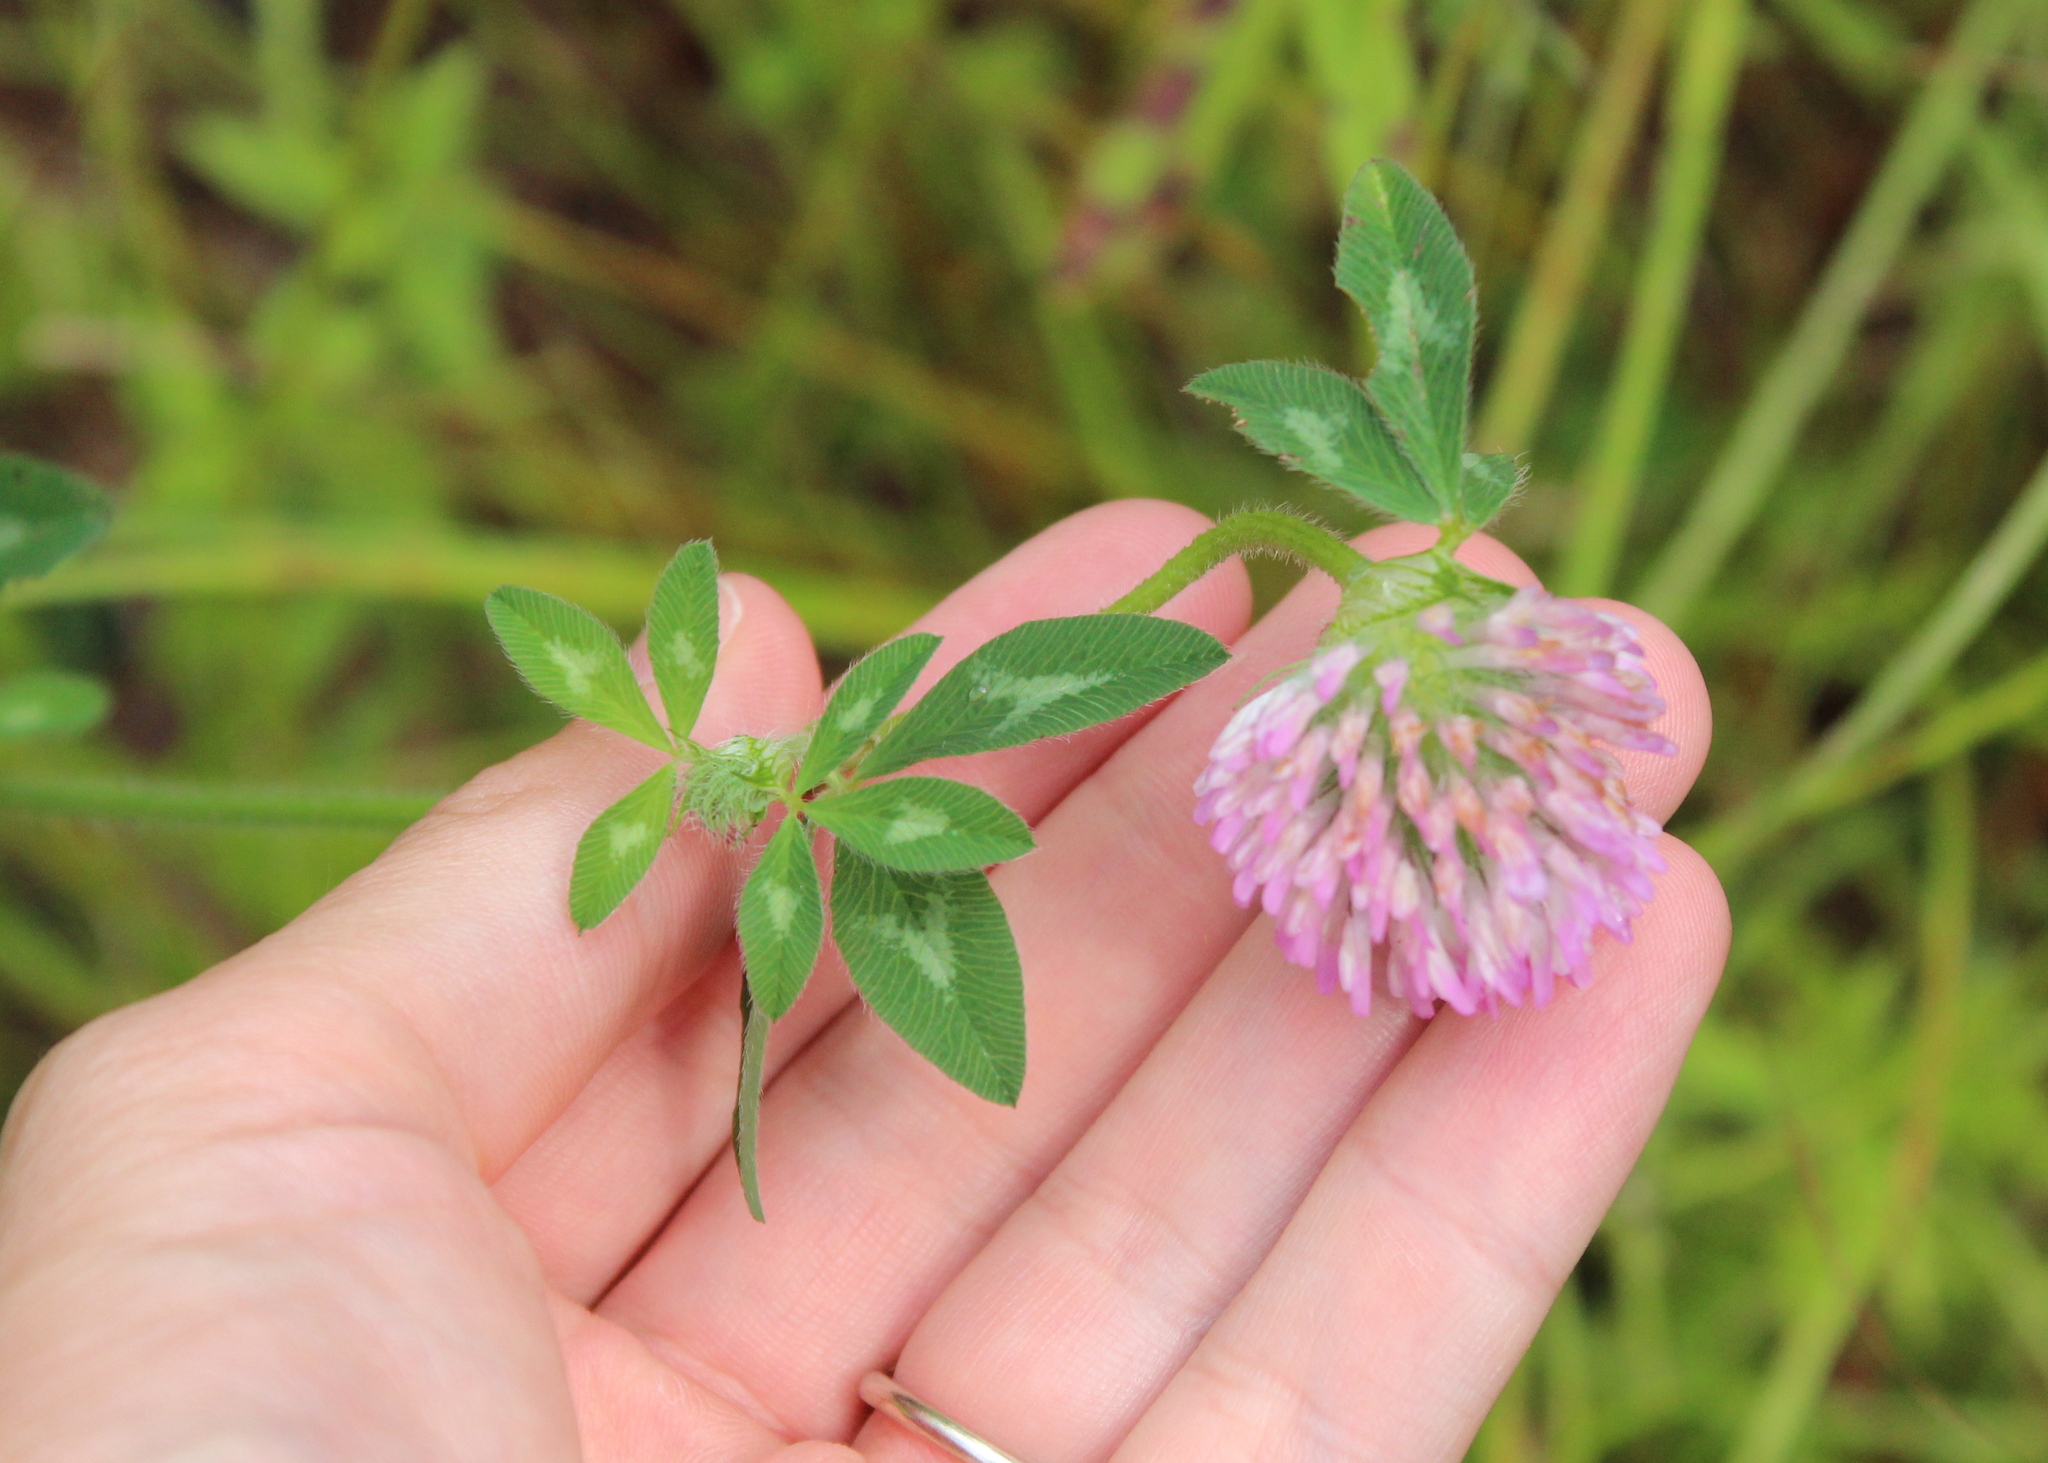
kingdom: Plantae
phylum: Tracheophyta
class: Magnoliopsida
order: Fabales
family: Fabaceae
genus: Trifolium
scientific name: Trifolium pratense
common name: Red clover
